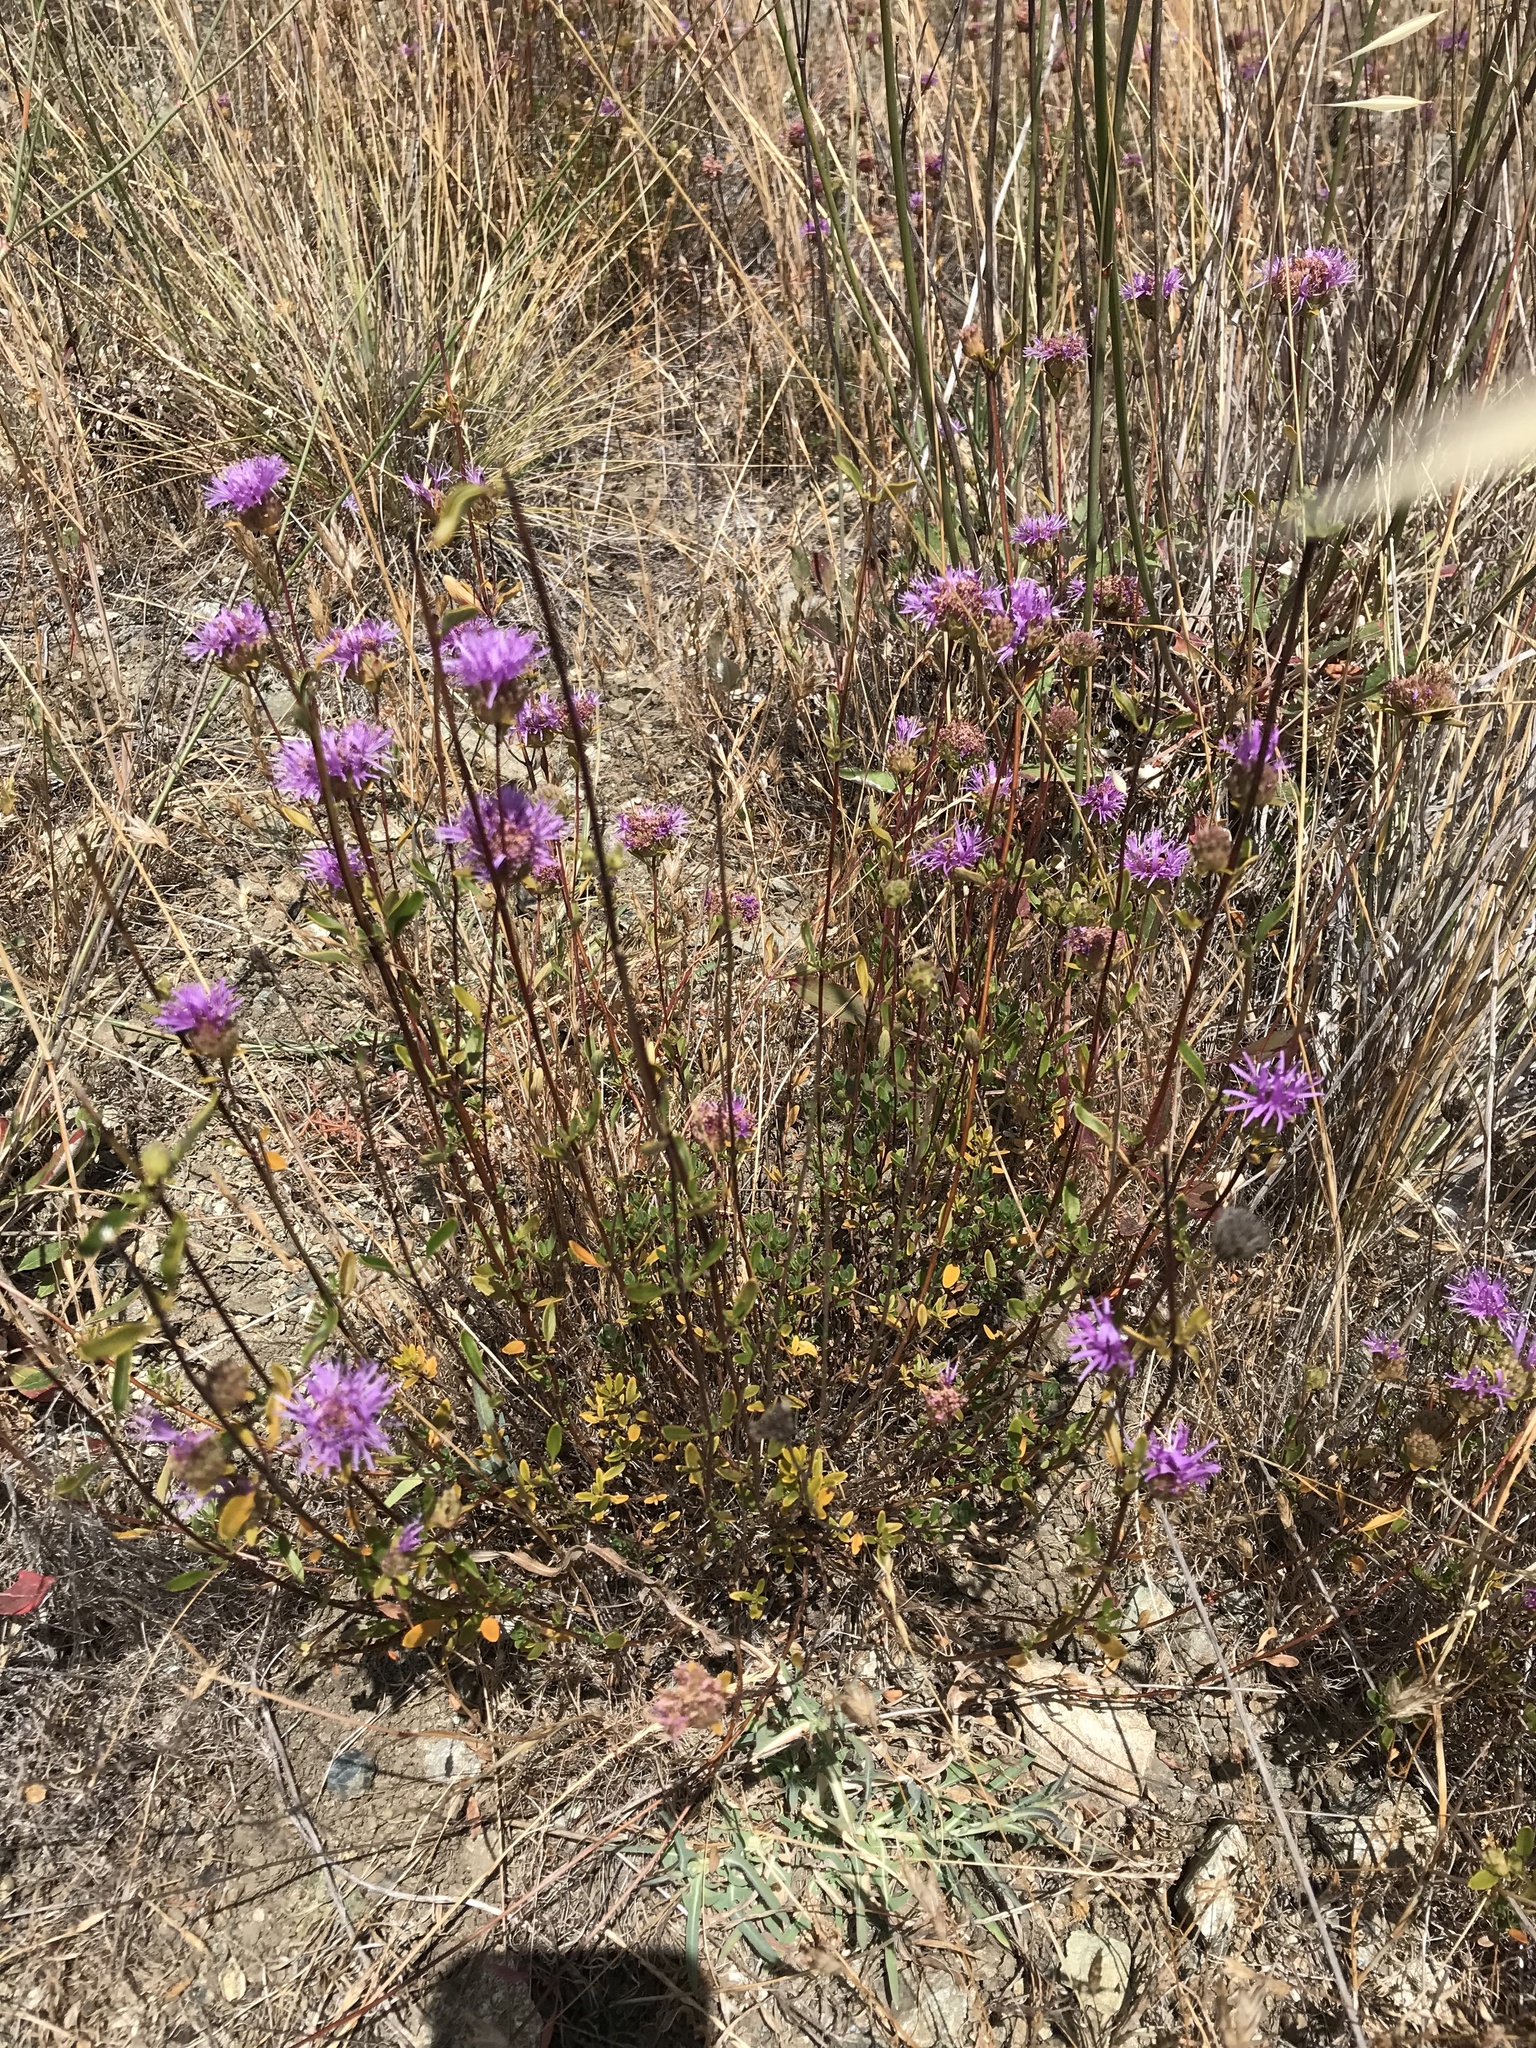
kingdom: Plantae
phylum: Tracheophyta
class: Magnoliopsida
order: Lamiales
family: Lamiaceae
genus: Monardella
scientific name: Monardella purpurea
